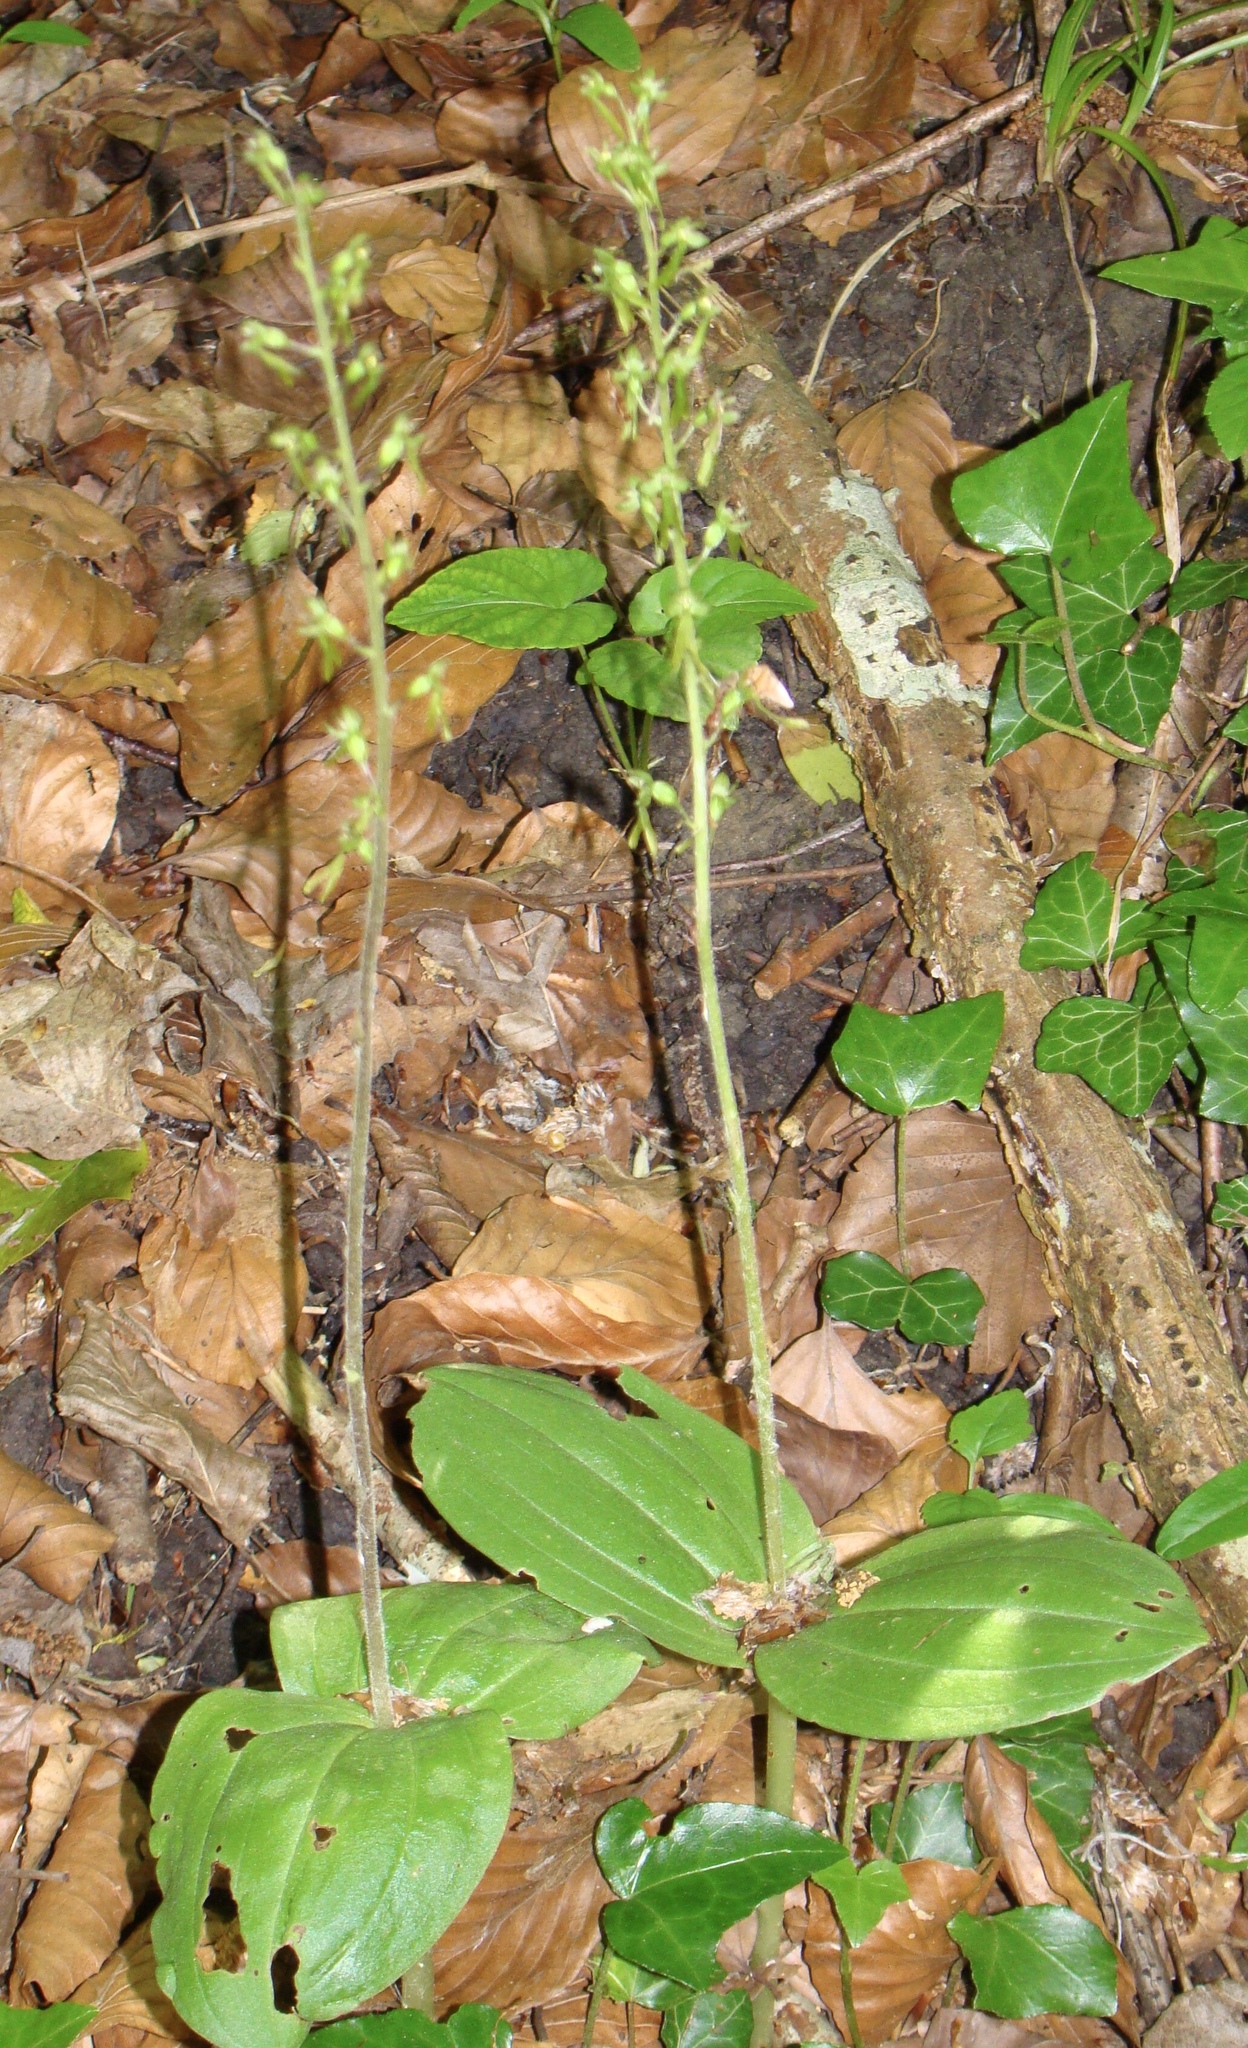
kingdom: Plantae
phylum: Tracheophyta
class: Liliopsida
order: Asparagales
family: Orchidaceae
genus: Neottia
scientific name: Neottia ovata
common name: Common twayblade
